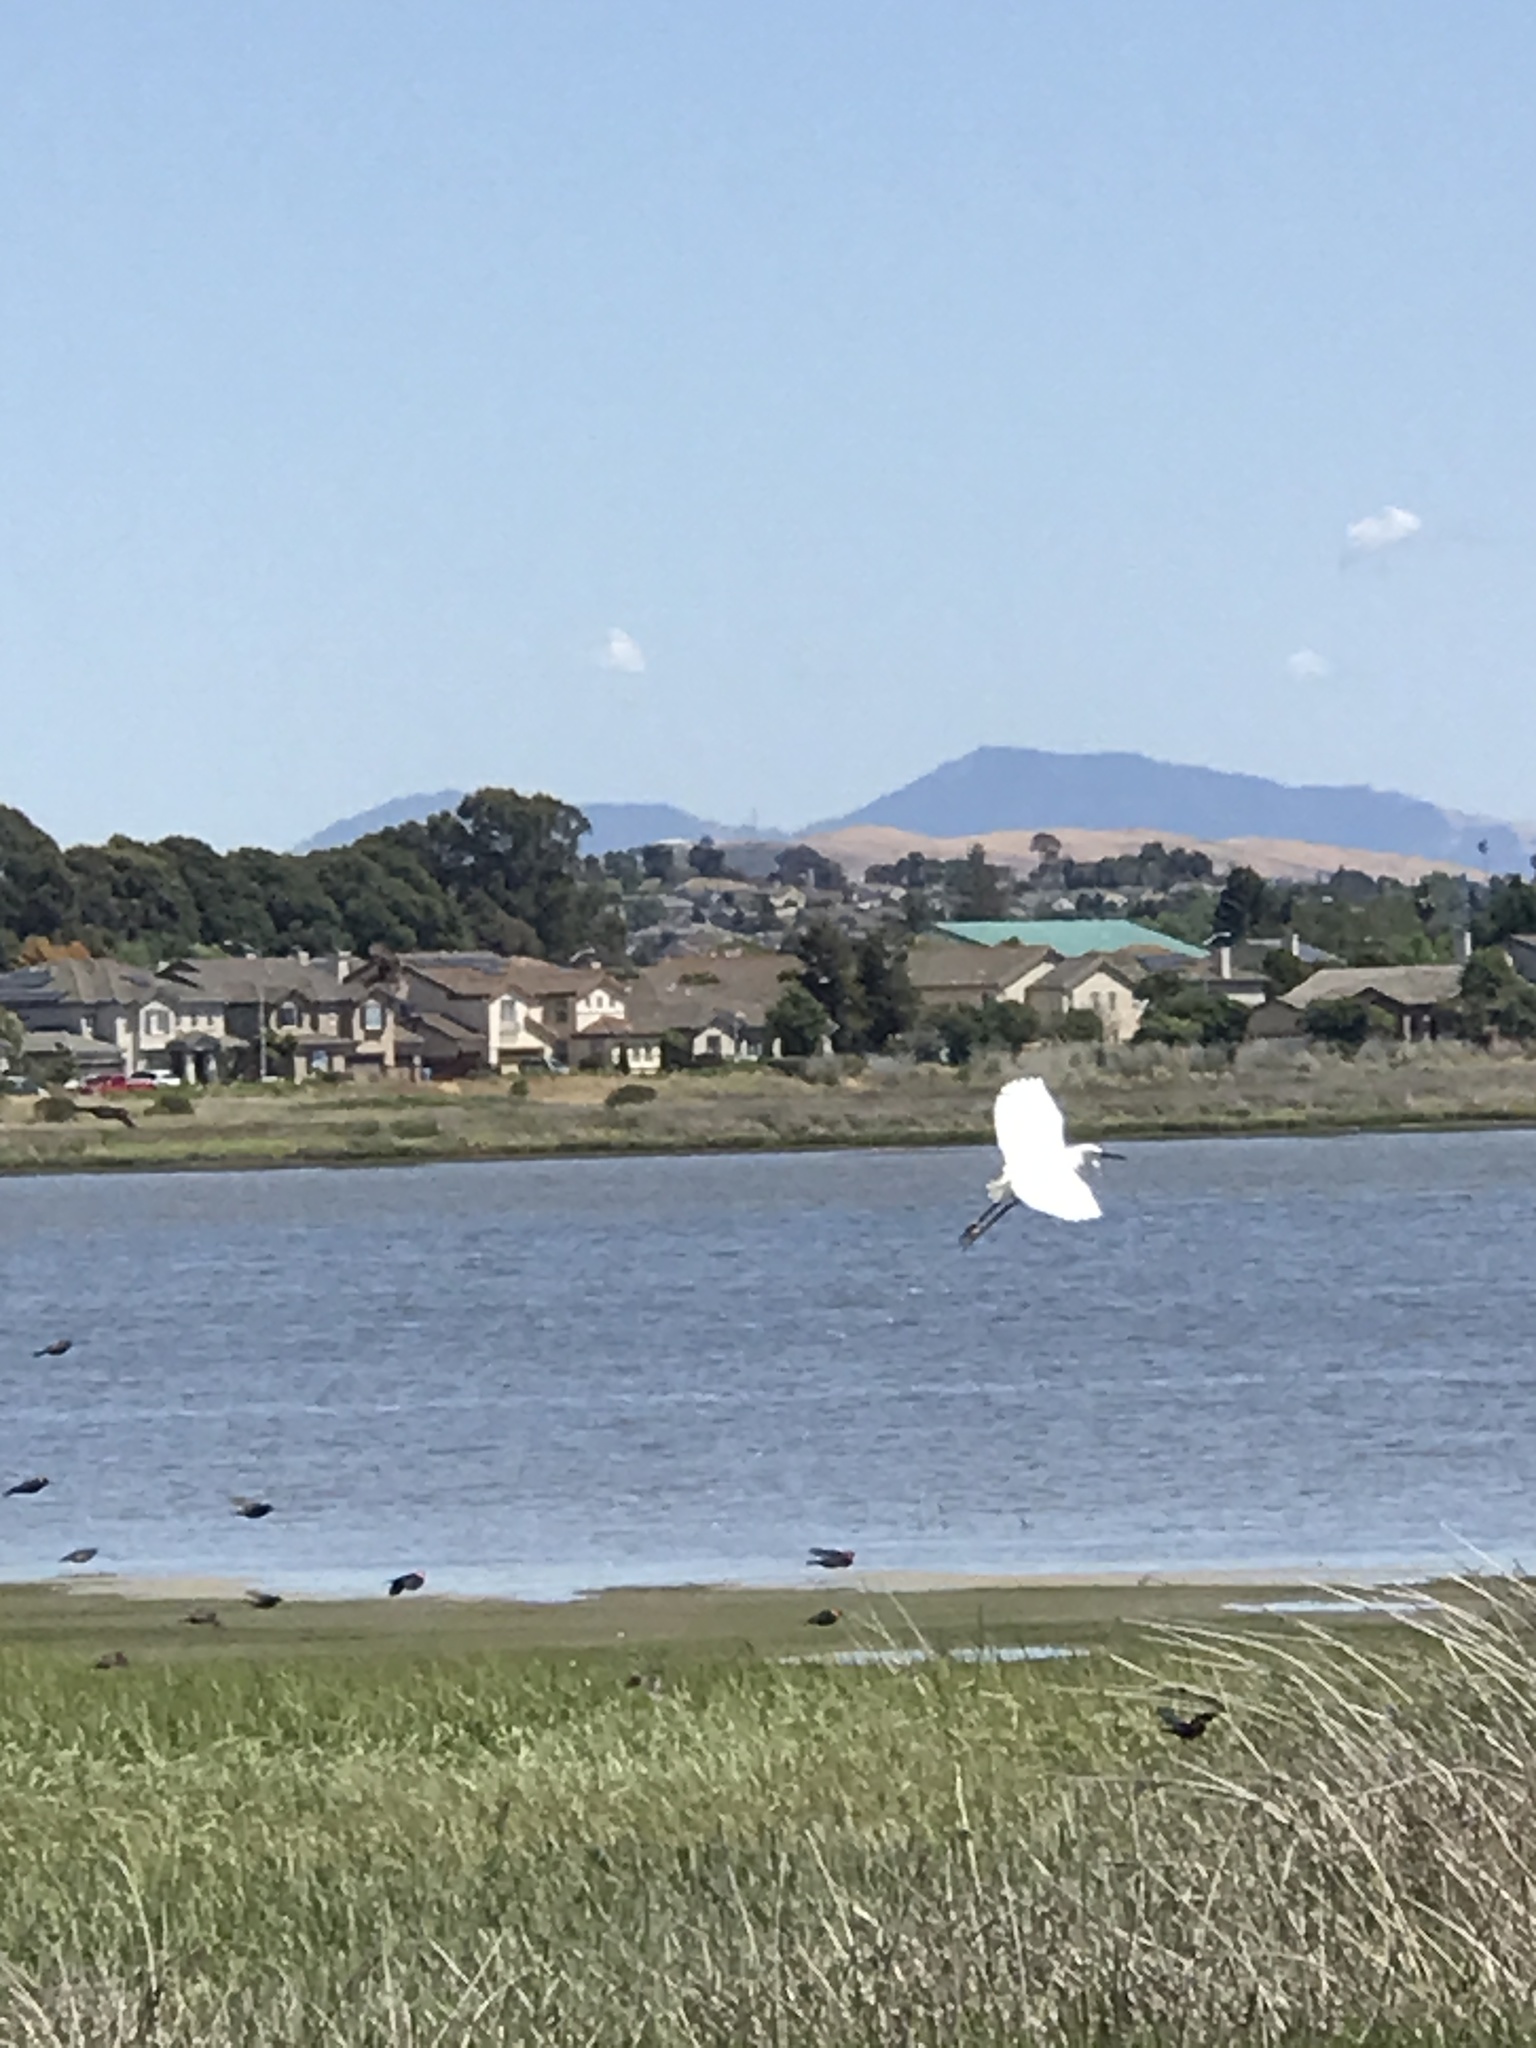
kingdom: Animalia
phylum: Chordata
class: Aves
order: Pelecaniformes
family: Ardeidae
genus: Egretta
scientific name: Egretta thula
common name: Snowy egret
